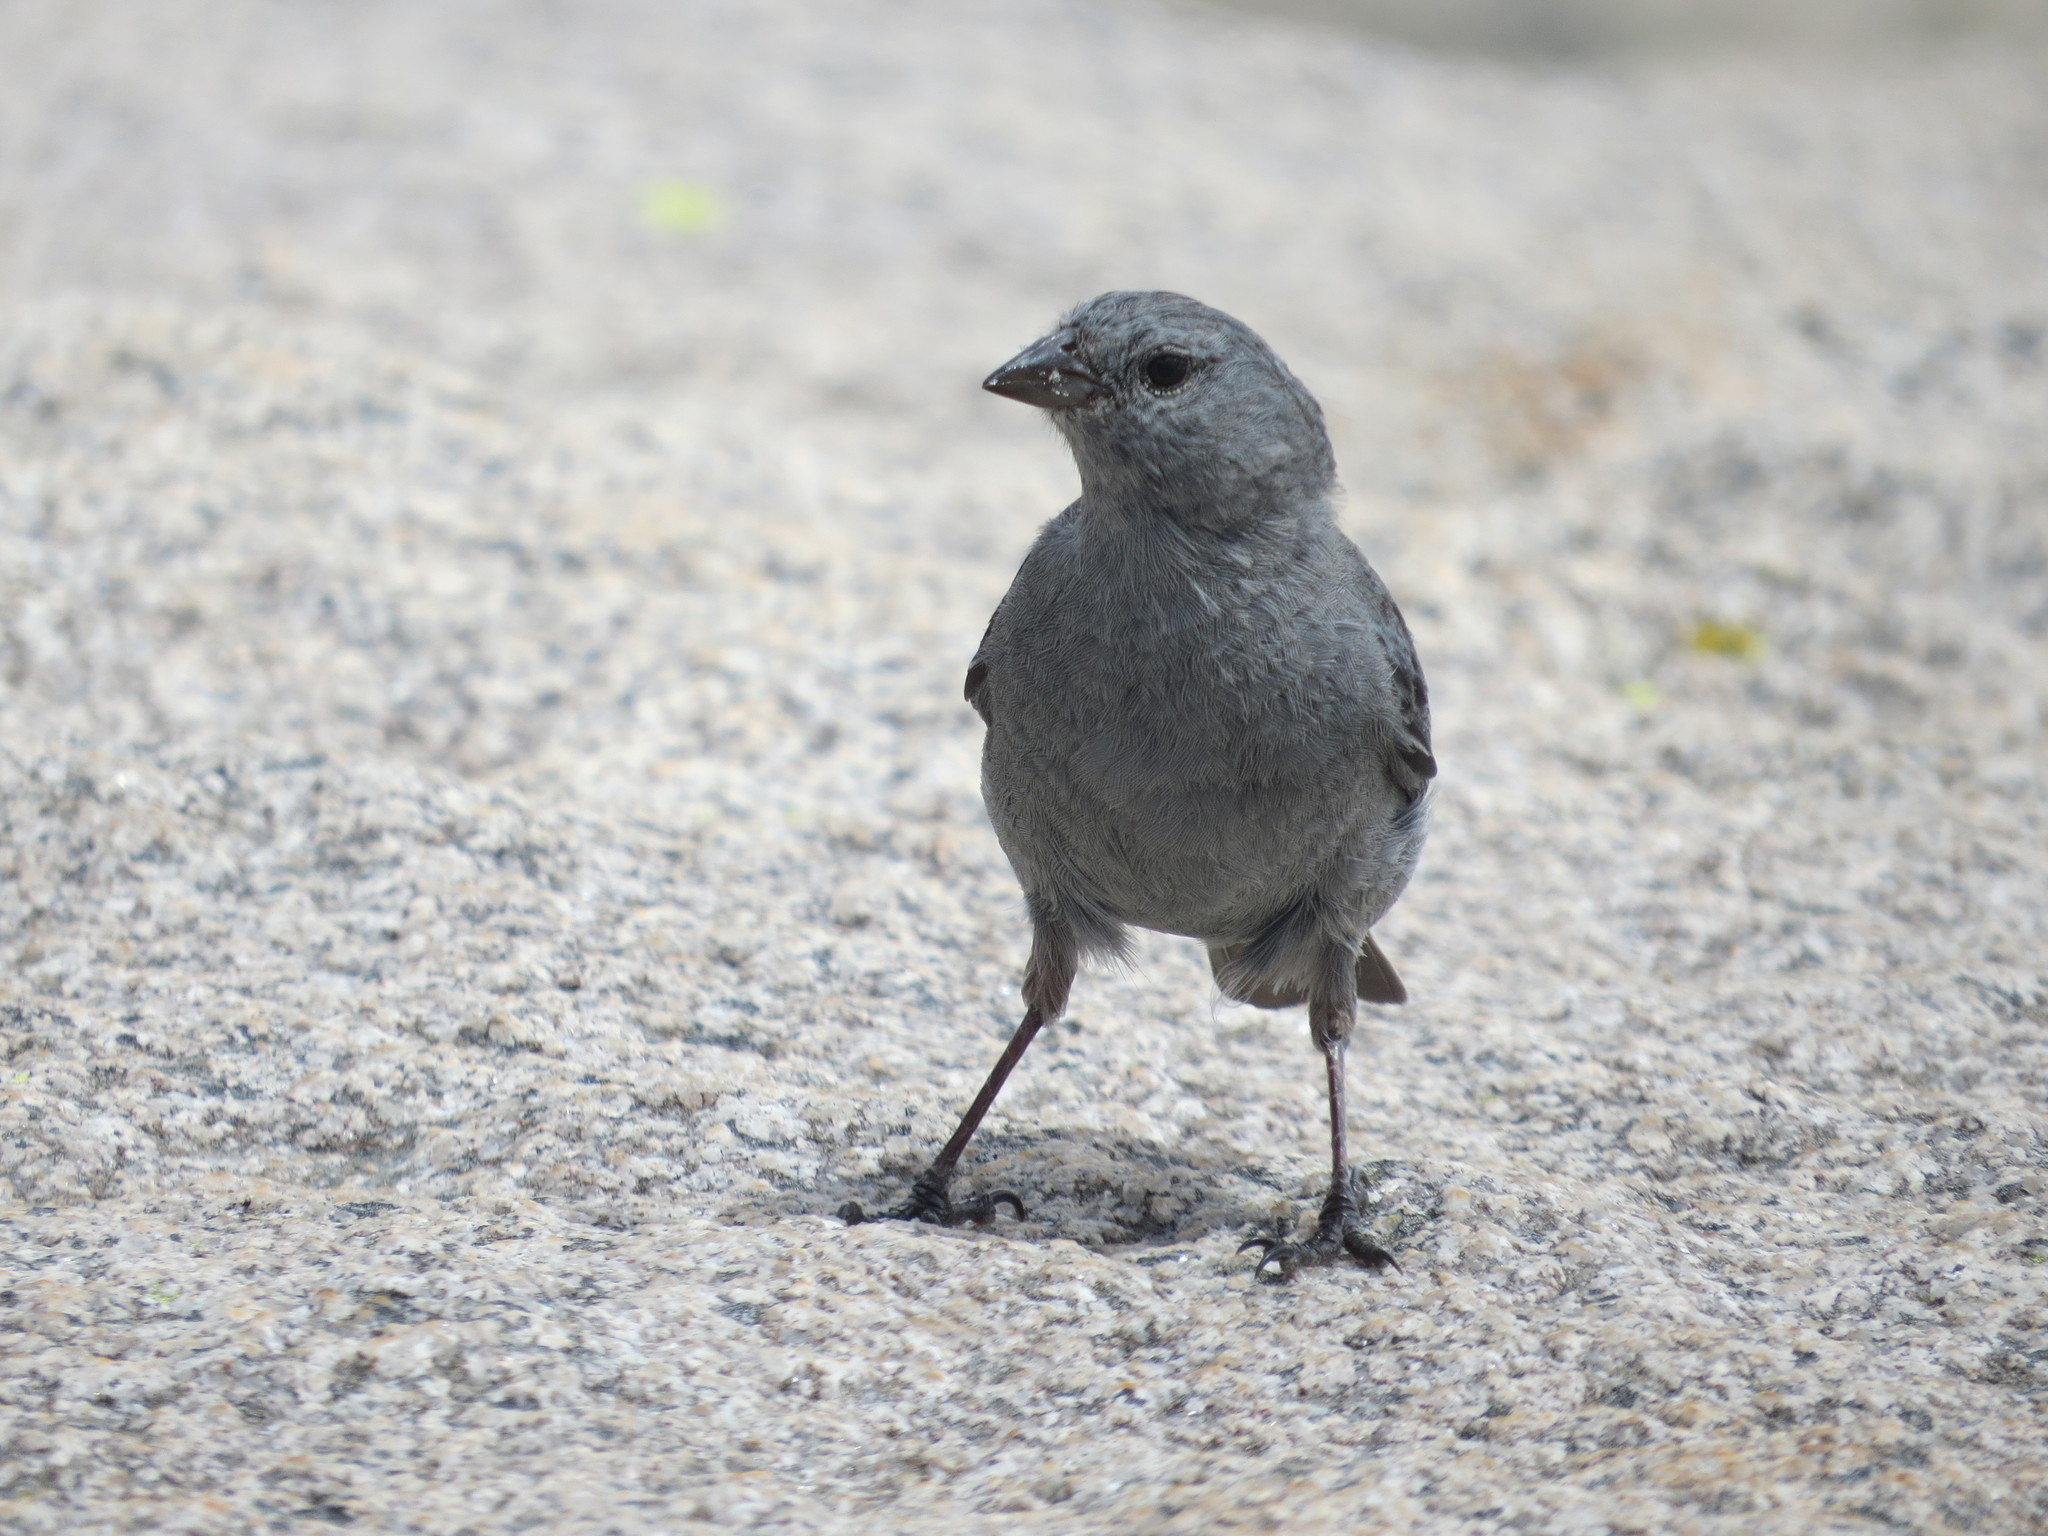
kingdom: Animalia
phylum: Chordata
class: Aves
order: Passeriformes
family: Thraupidae
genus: Geospizopsis
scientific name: Geospizopsis unicolor
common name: Plumbeous sierra-finch
